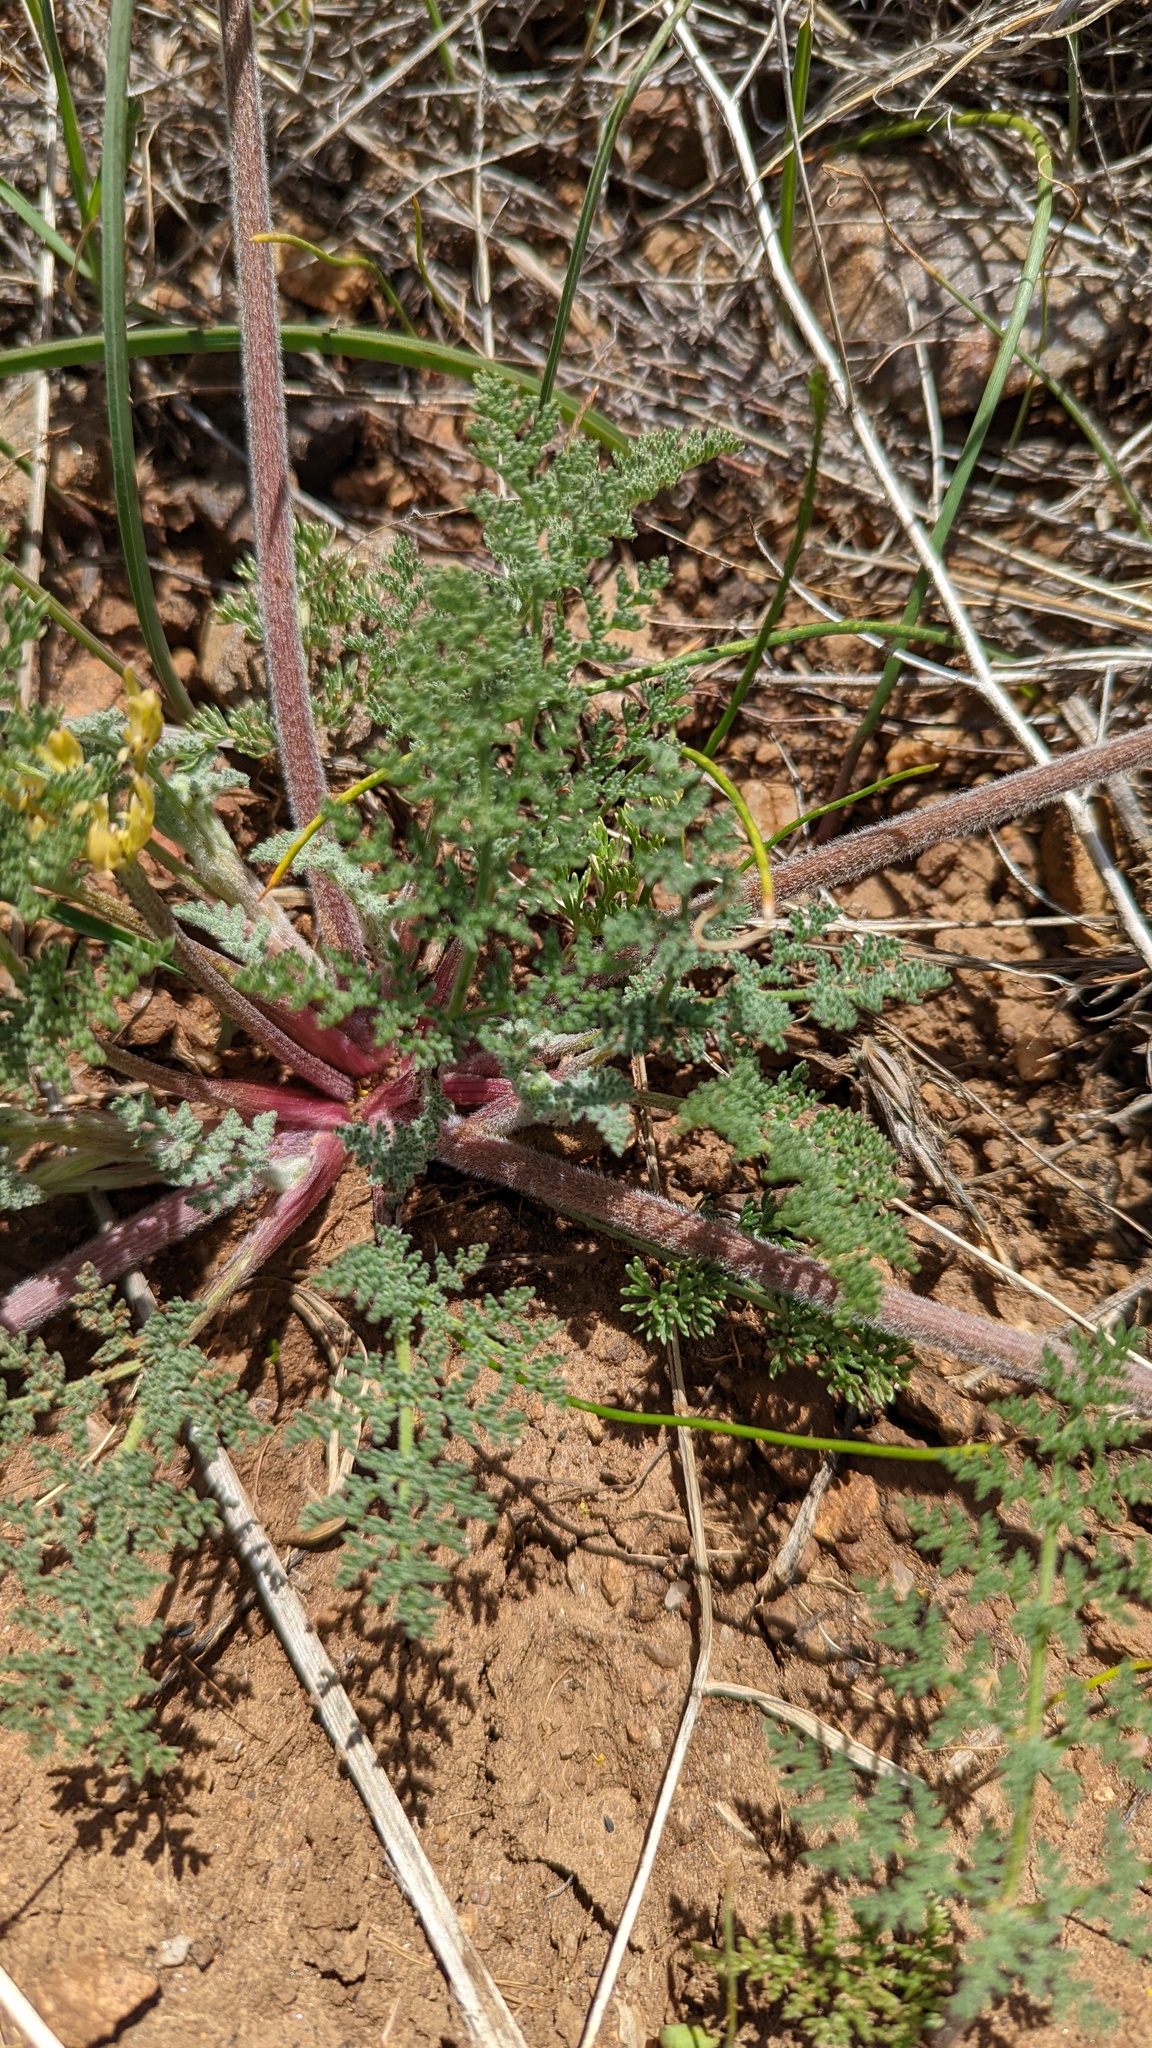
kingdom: Plantae
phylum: Tracheophyta
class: Magnoliopsida
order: Apiales
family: Apiaceae
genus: Lomatium
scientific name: Lomatium dasycarpum
